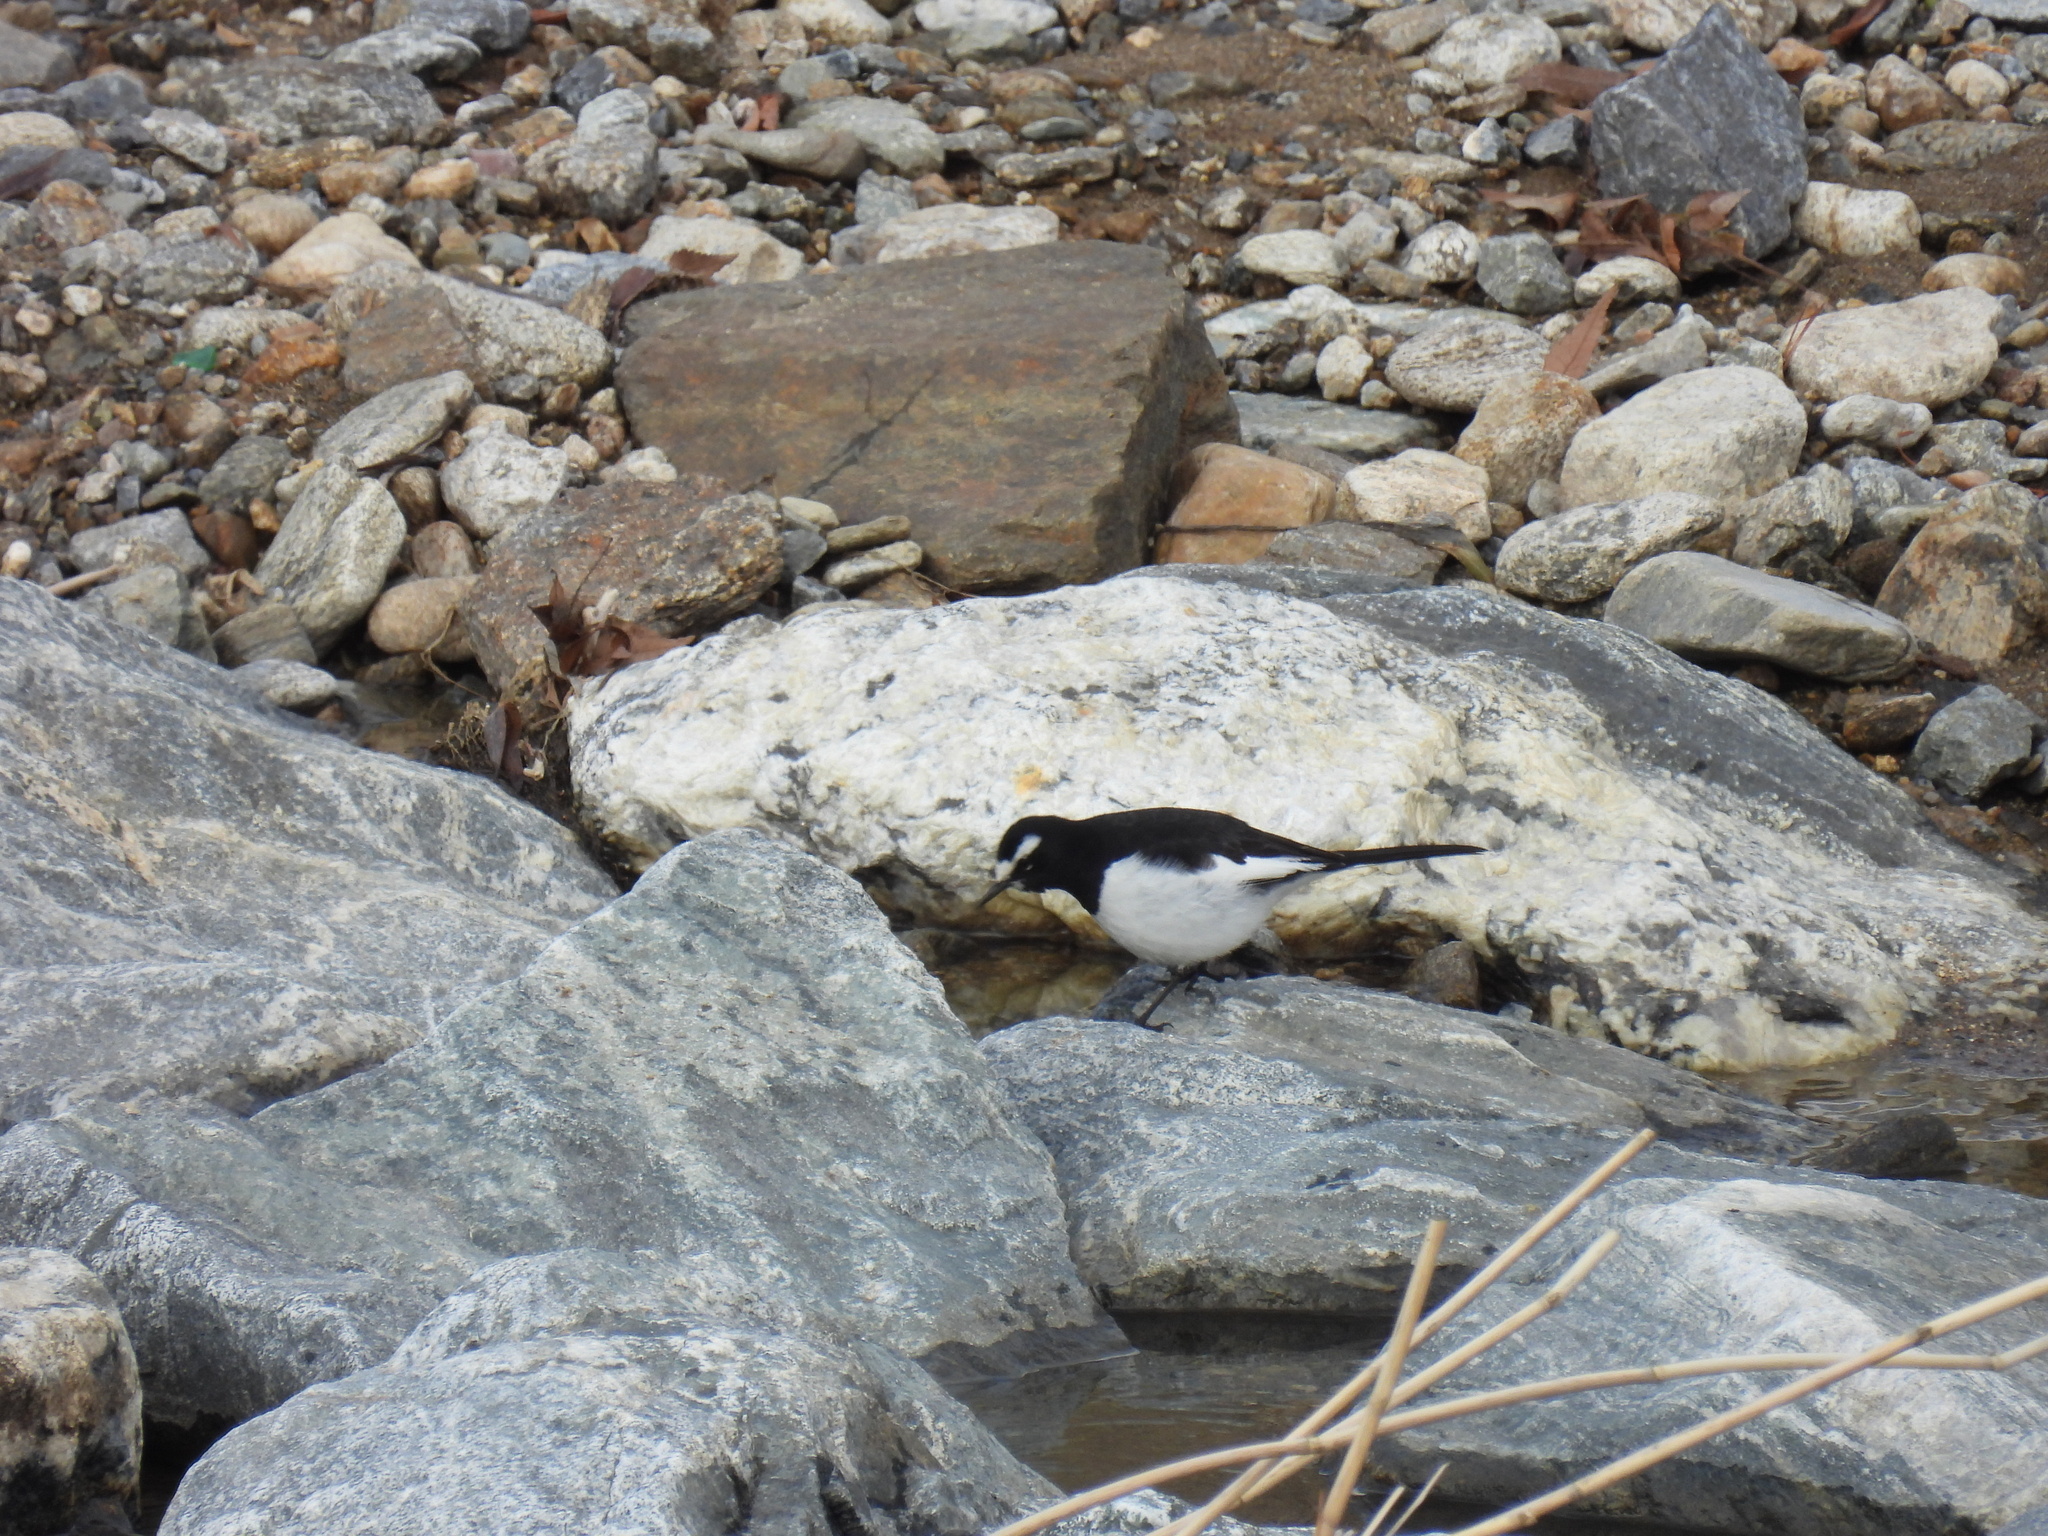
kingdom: Animalia
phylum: Chordata
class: Aves
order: Passeriformes
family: Motacillidae
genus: Motacilla
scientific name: Motacilla grandis
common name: Japanese wagtail
